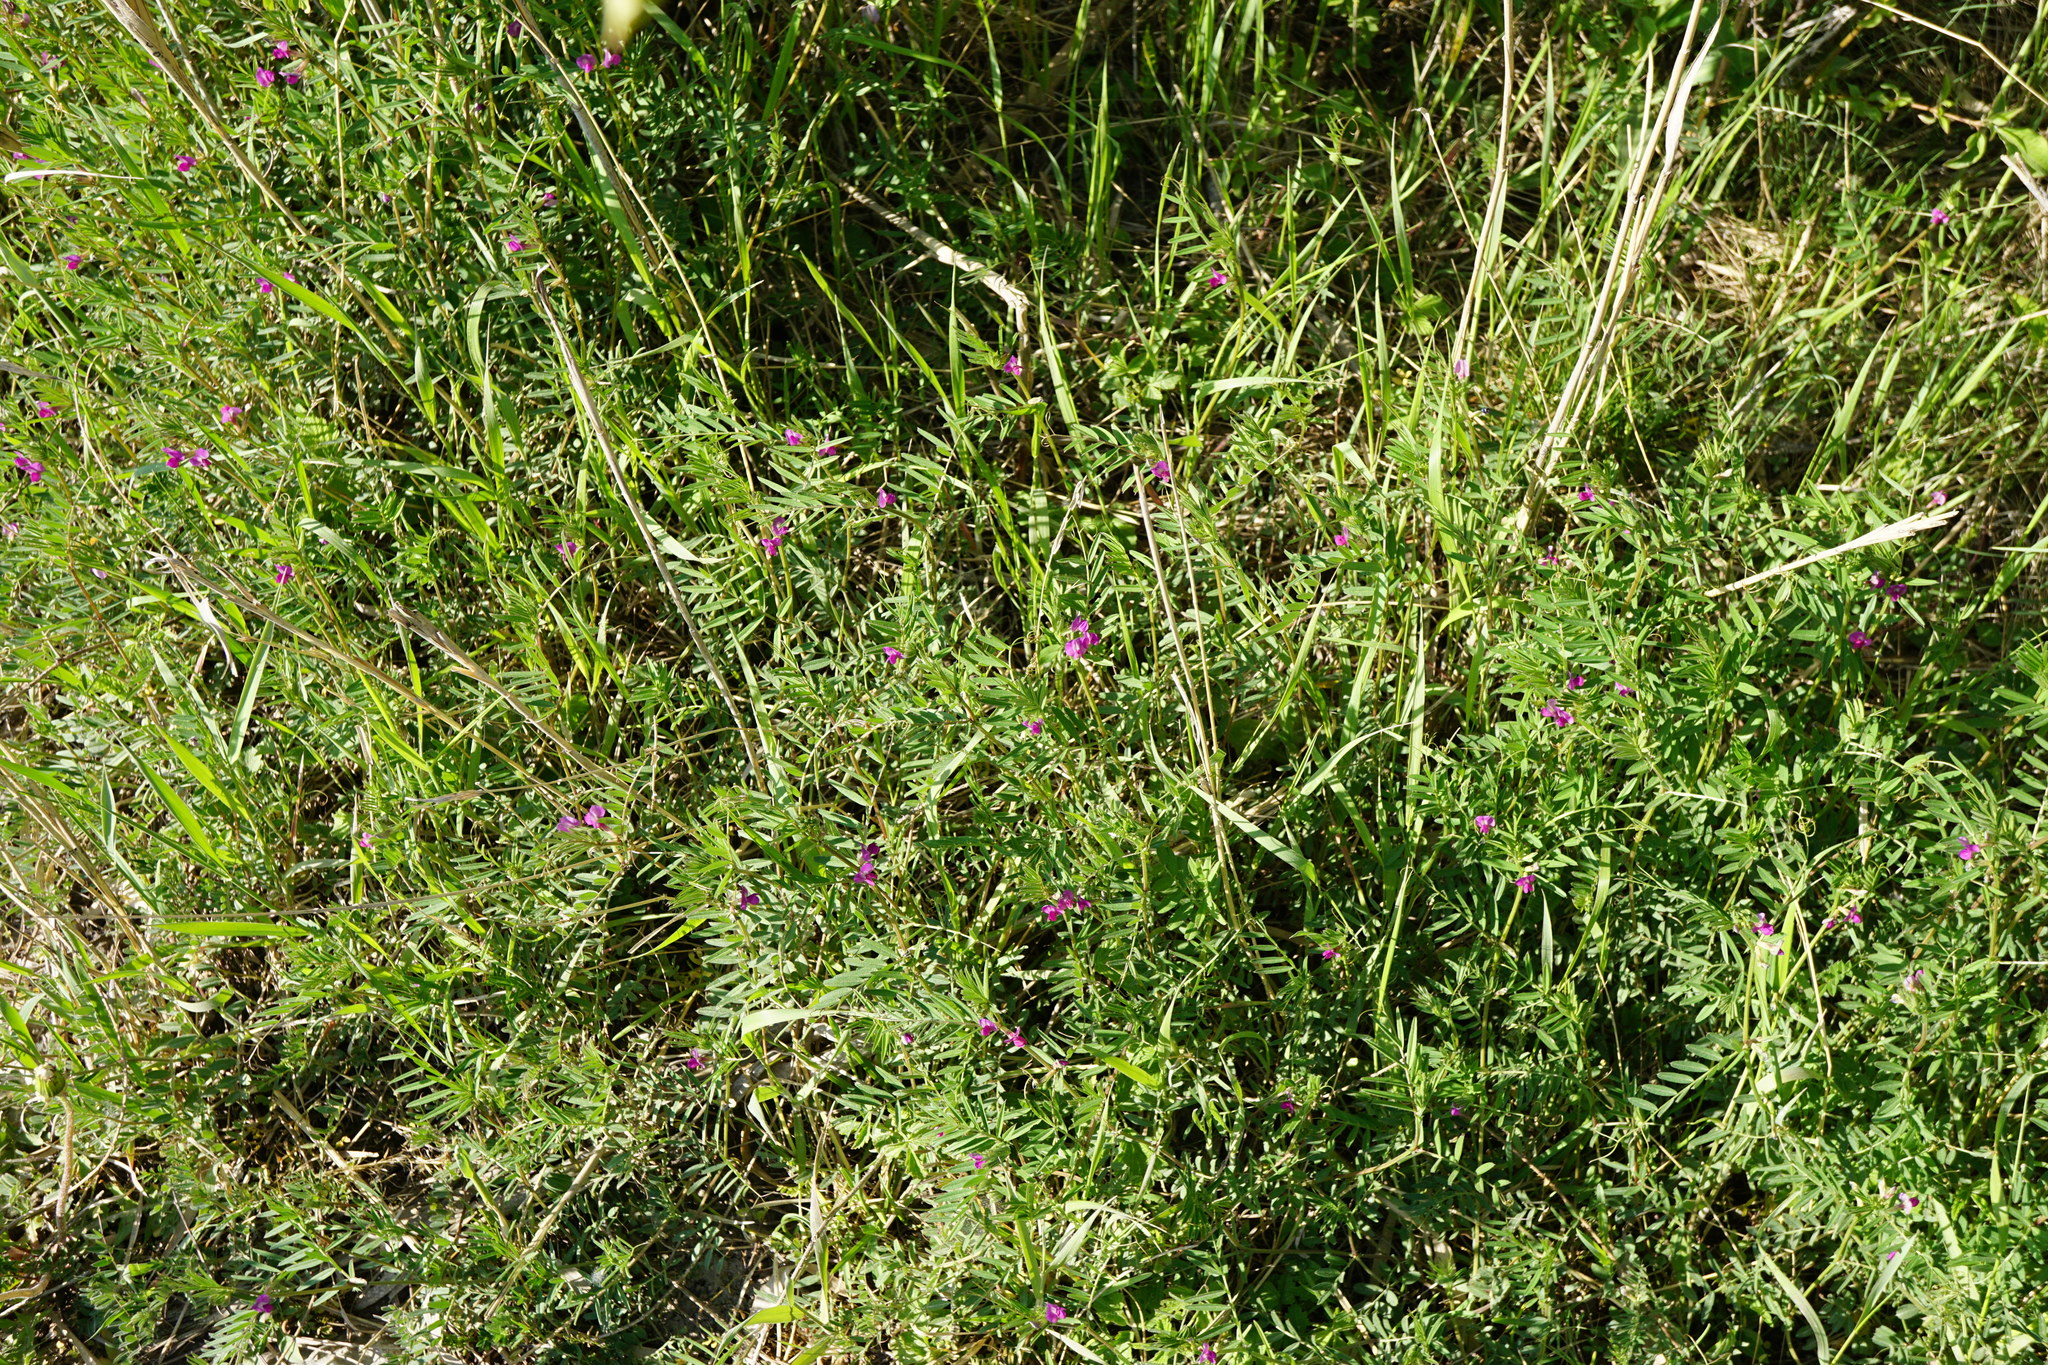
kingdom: Plantae
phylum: Tracheophyta
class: Magnoliopsida
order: Fabales
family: Fabaceae
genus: Vicia
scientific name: Vicia sativa
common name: Garden vetch
